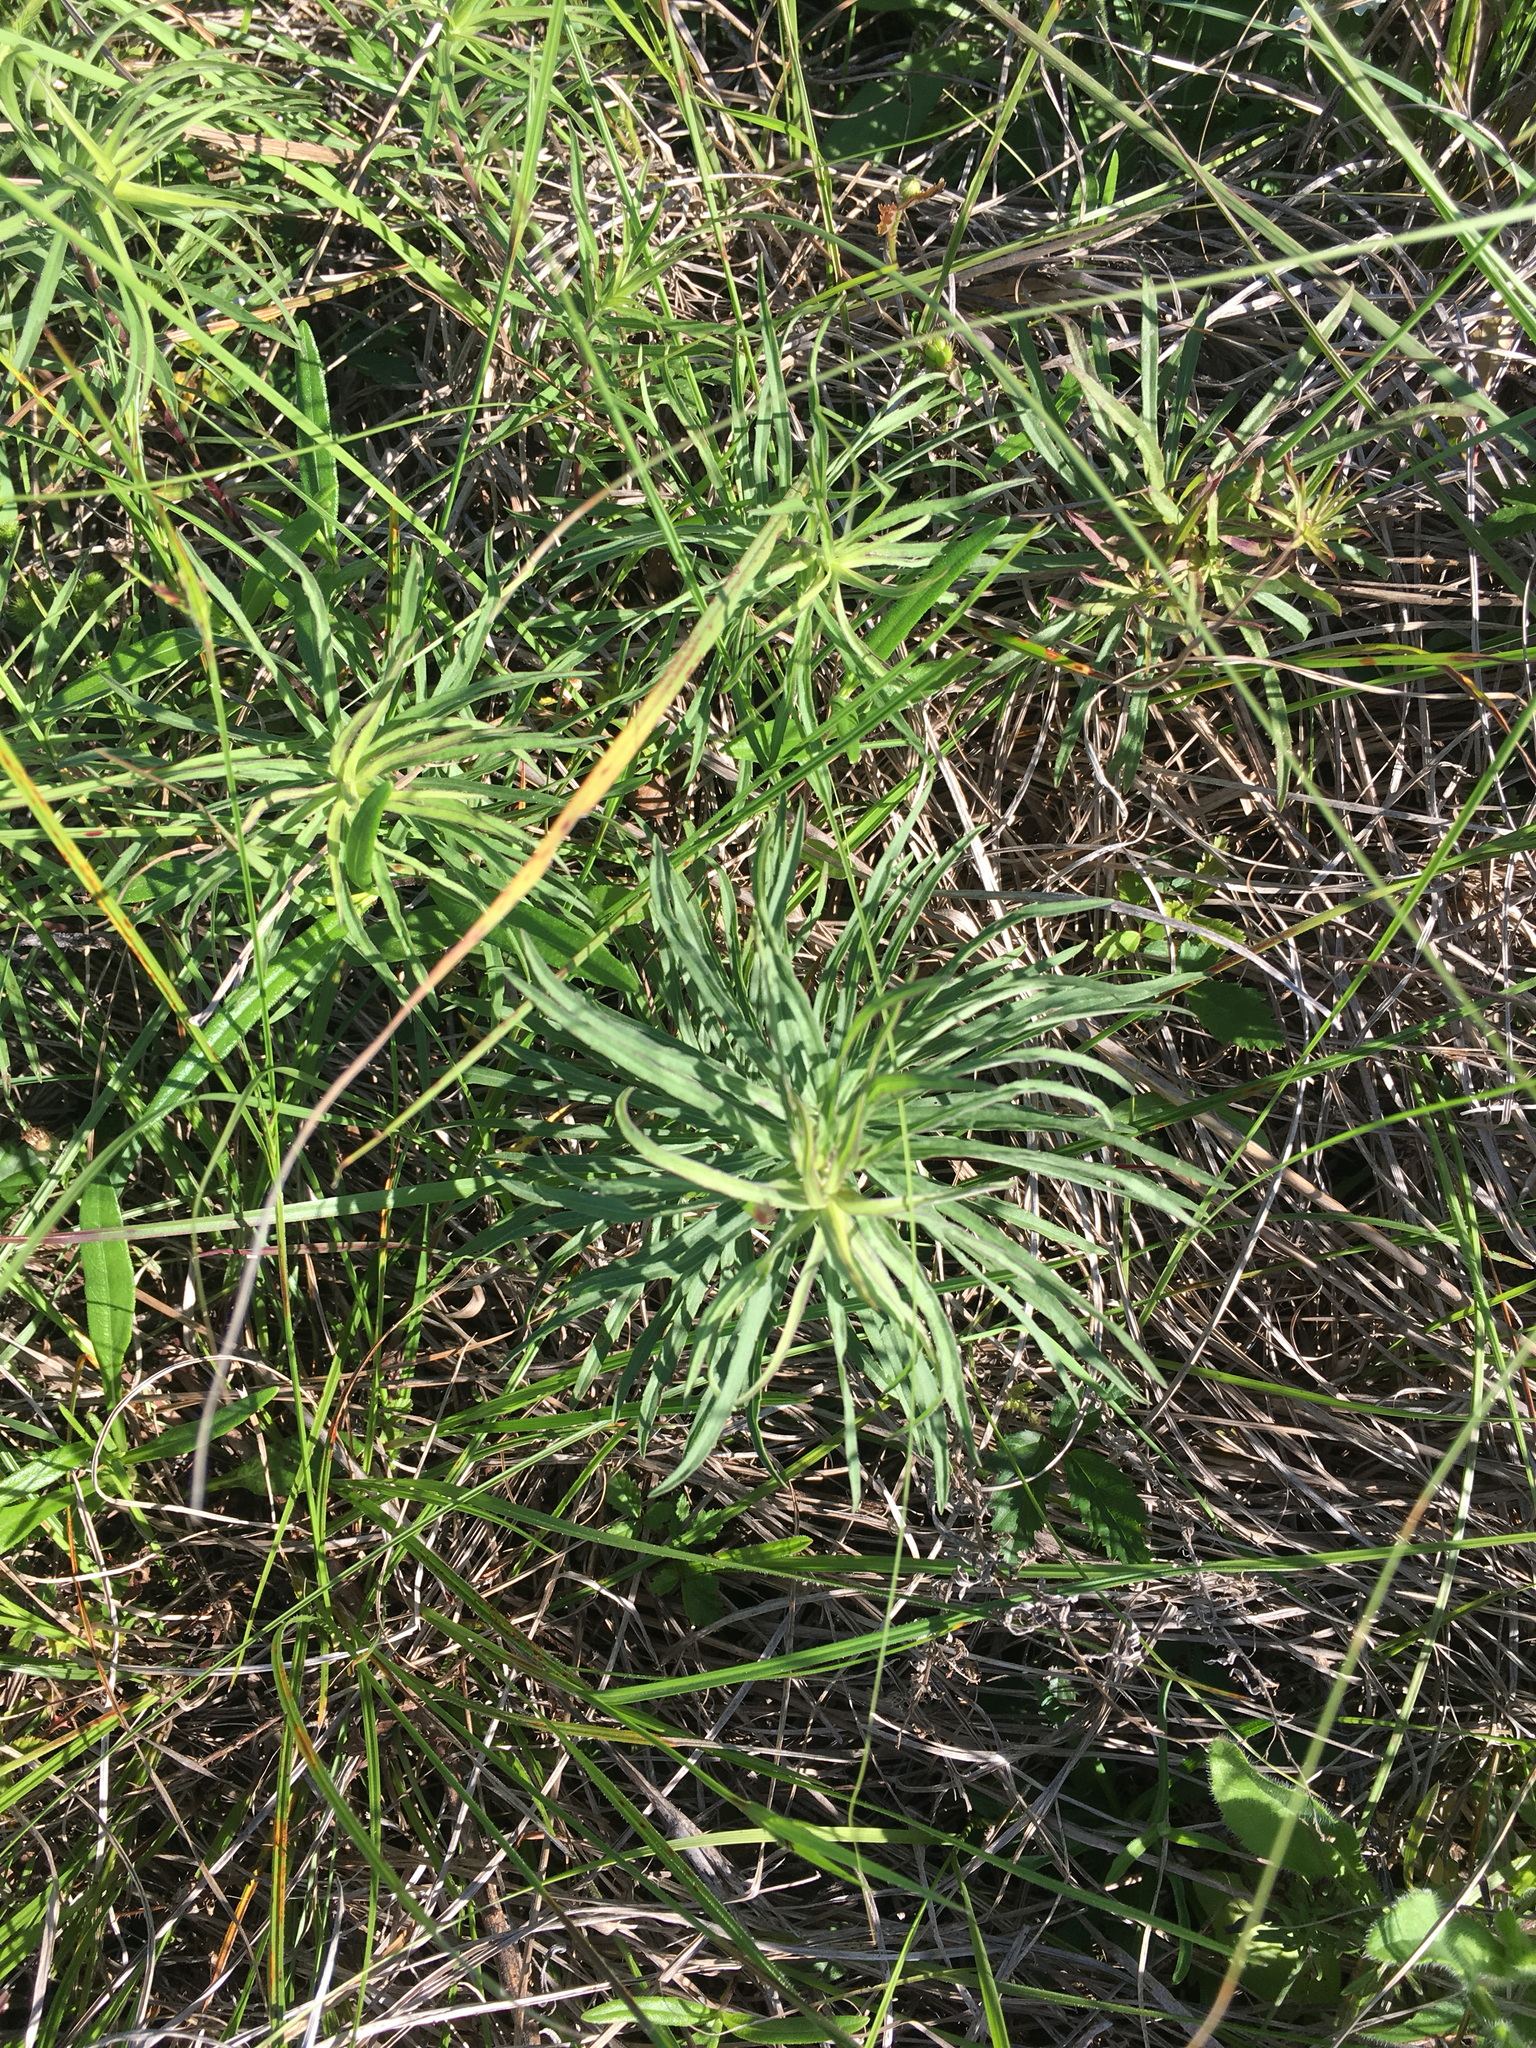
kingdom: Plantae
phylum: Tracheophyta
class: Magnoliopsida
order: Asterales
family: Asteraceae
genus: Solidago
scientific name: Solidago tortifolia
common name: Twisted-leaf goldenrod
